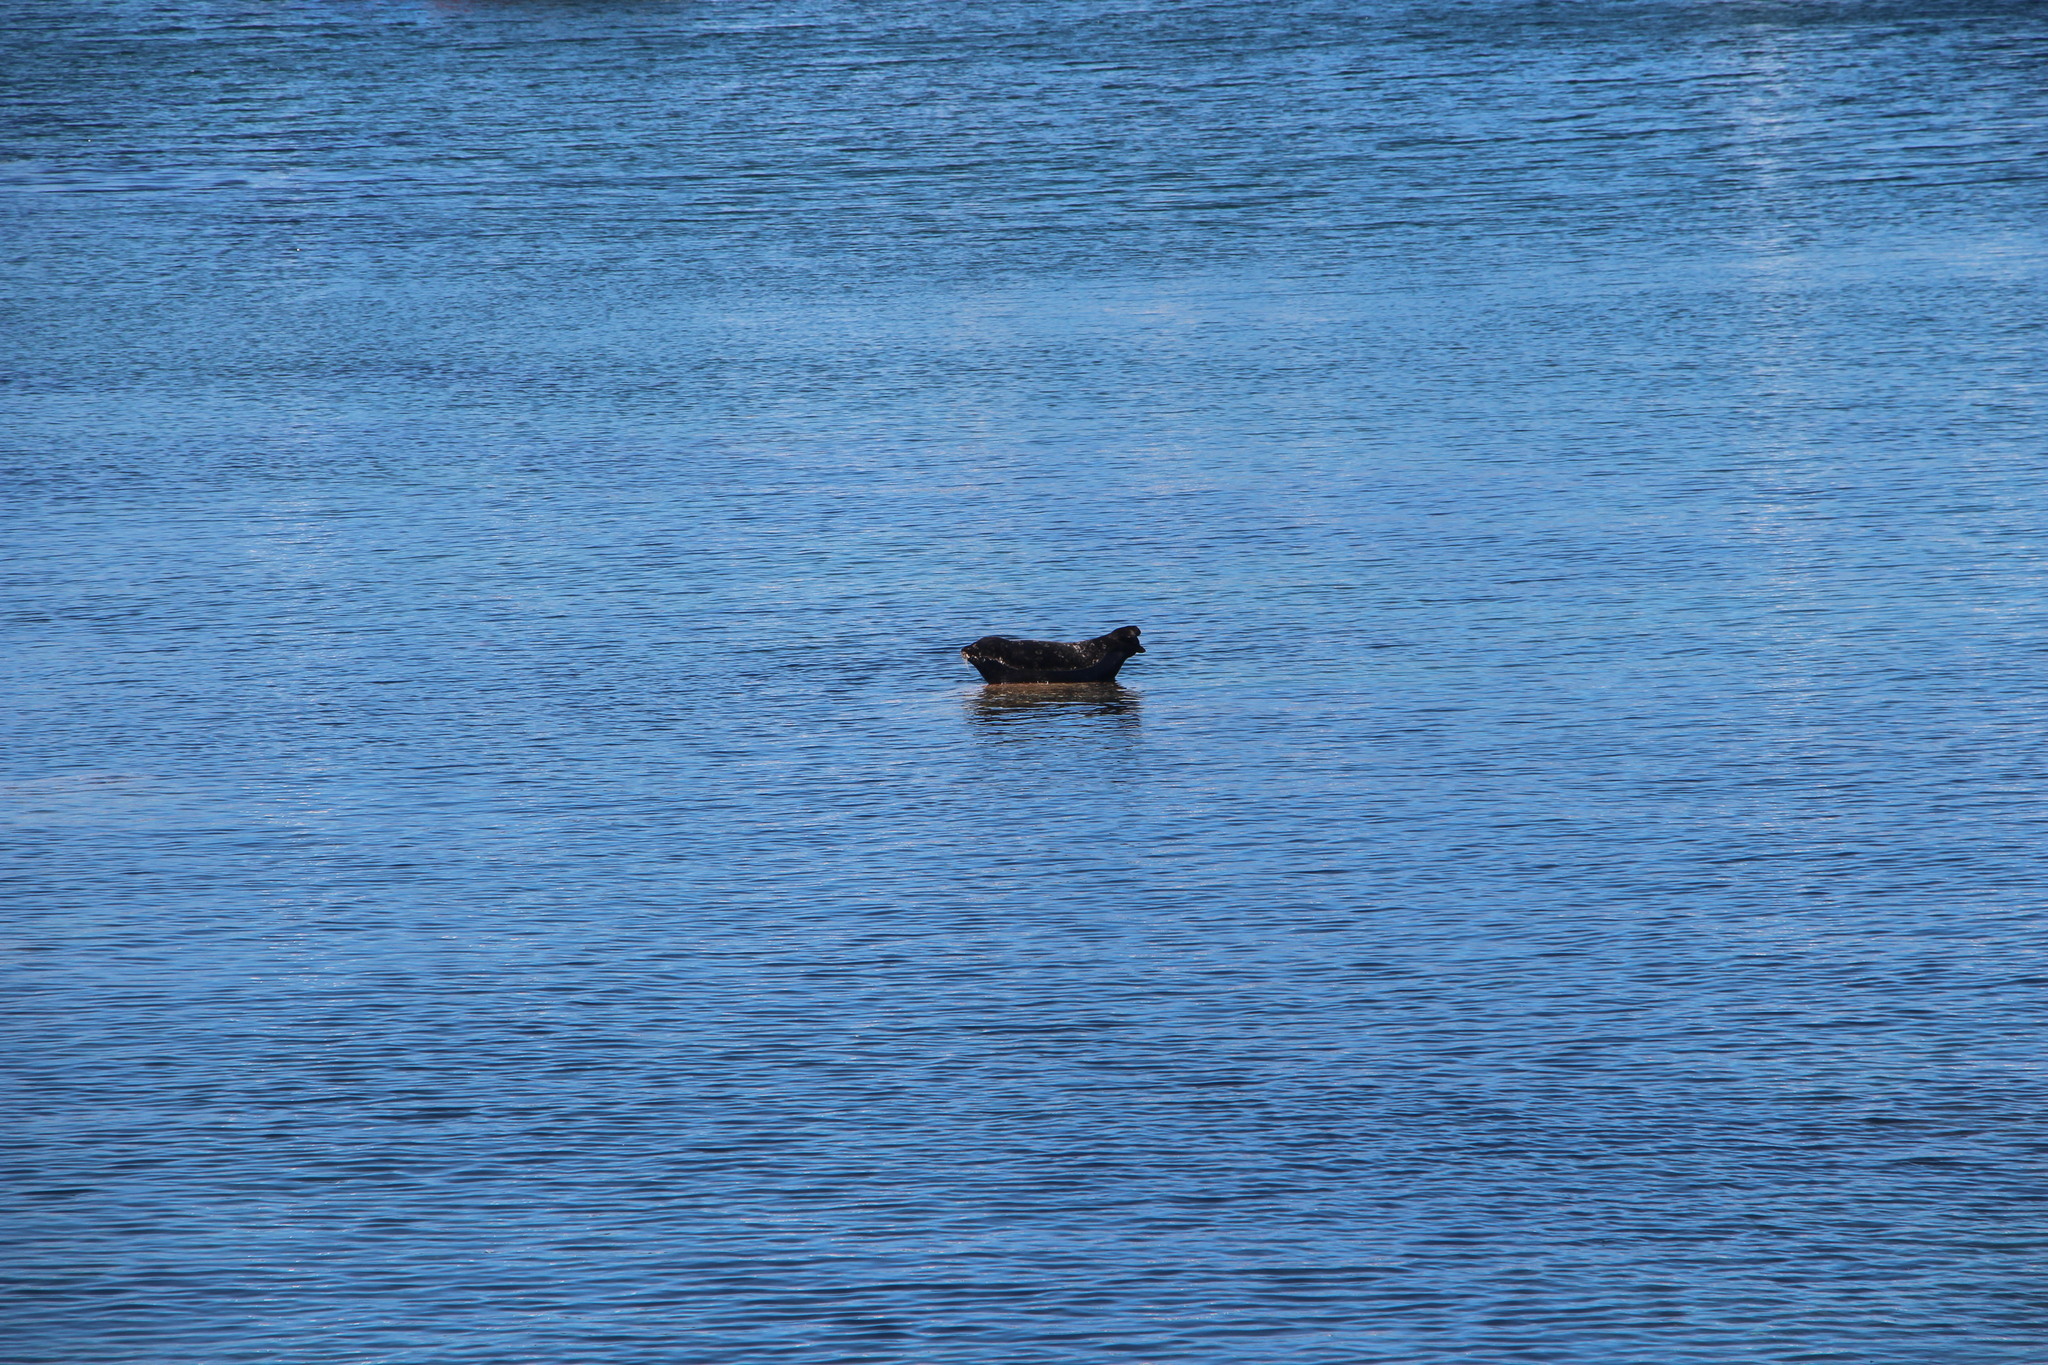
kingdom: Animalia
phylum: Chordata
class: Mammalia
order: Carnivora
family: Phocidae
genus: Phoca
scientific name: Phoca vitulina
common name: Harbor seal
